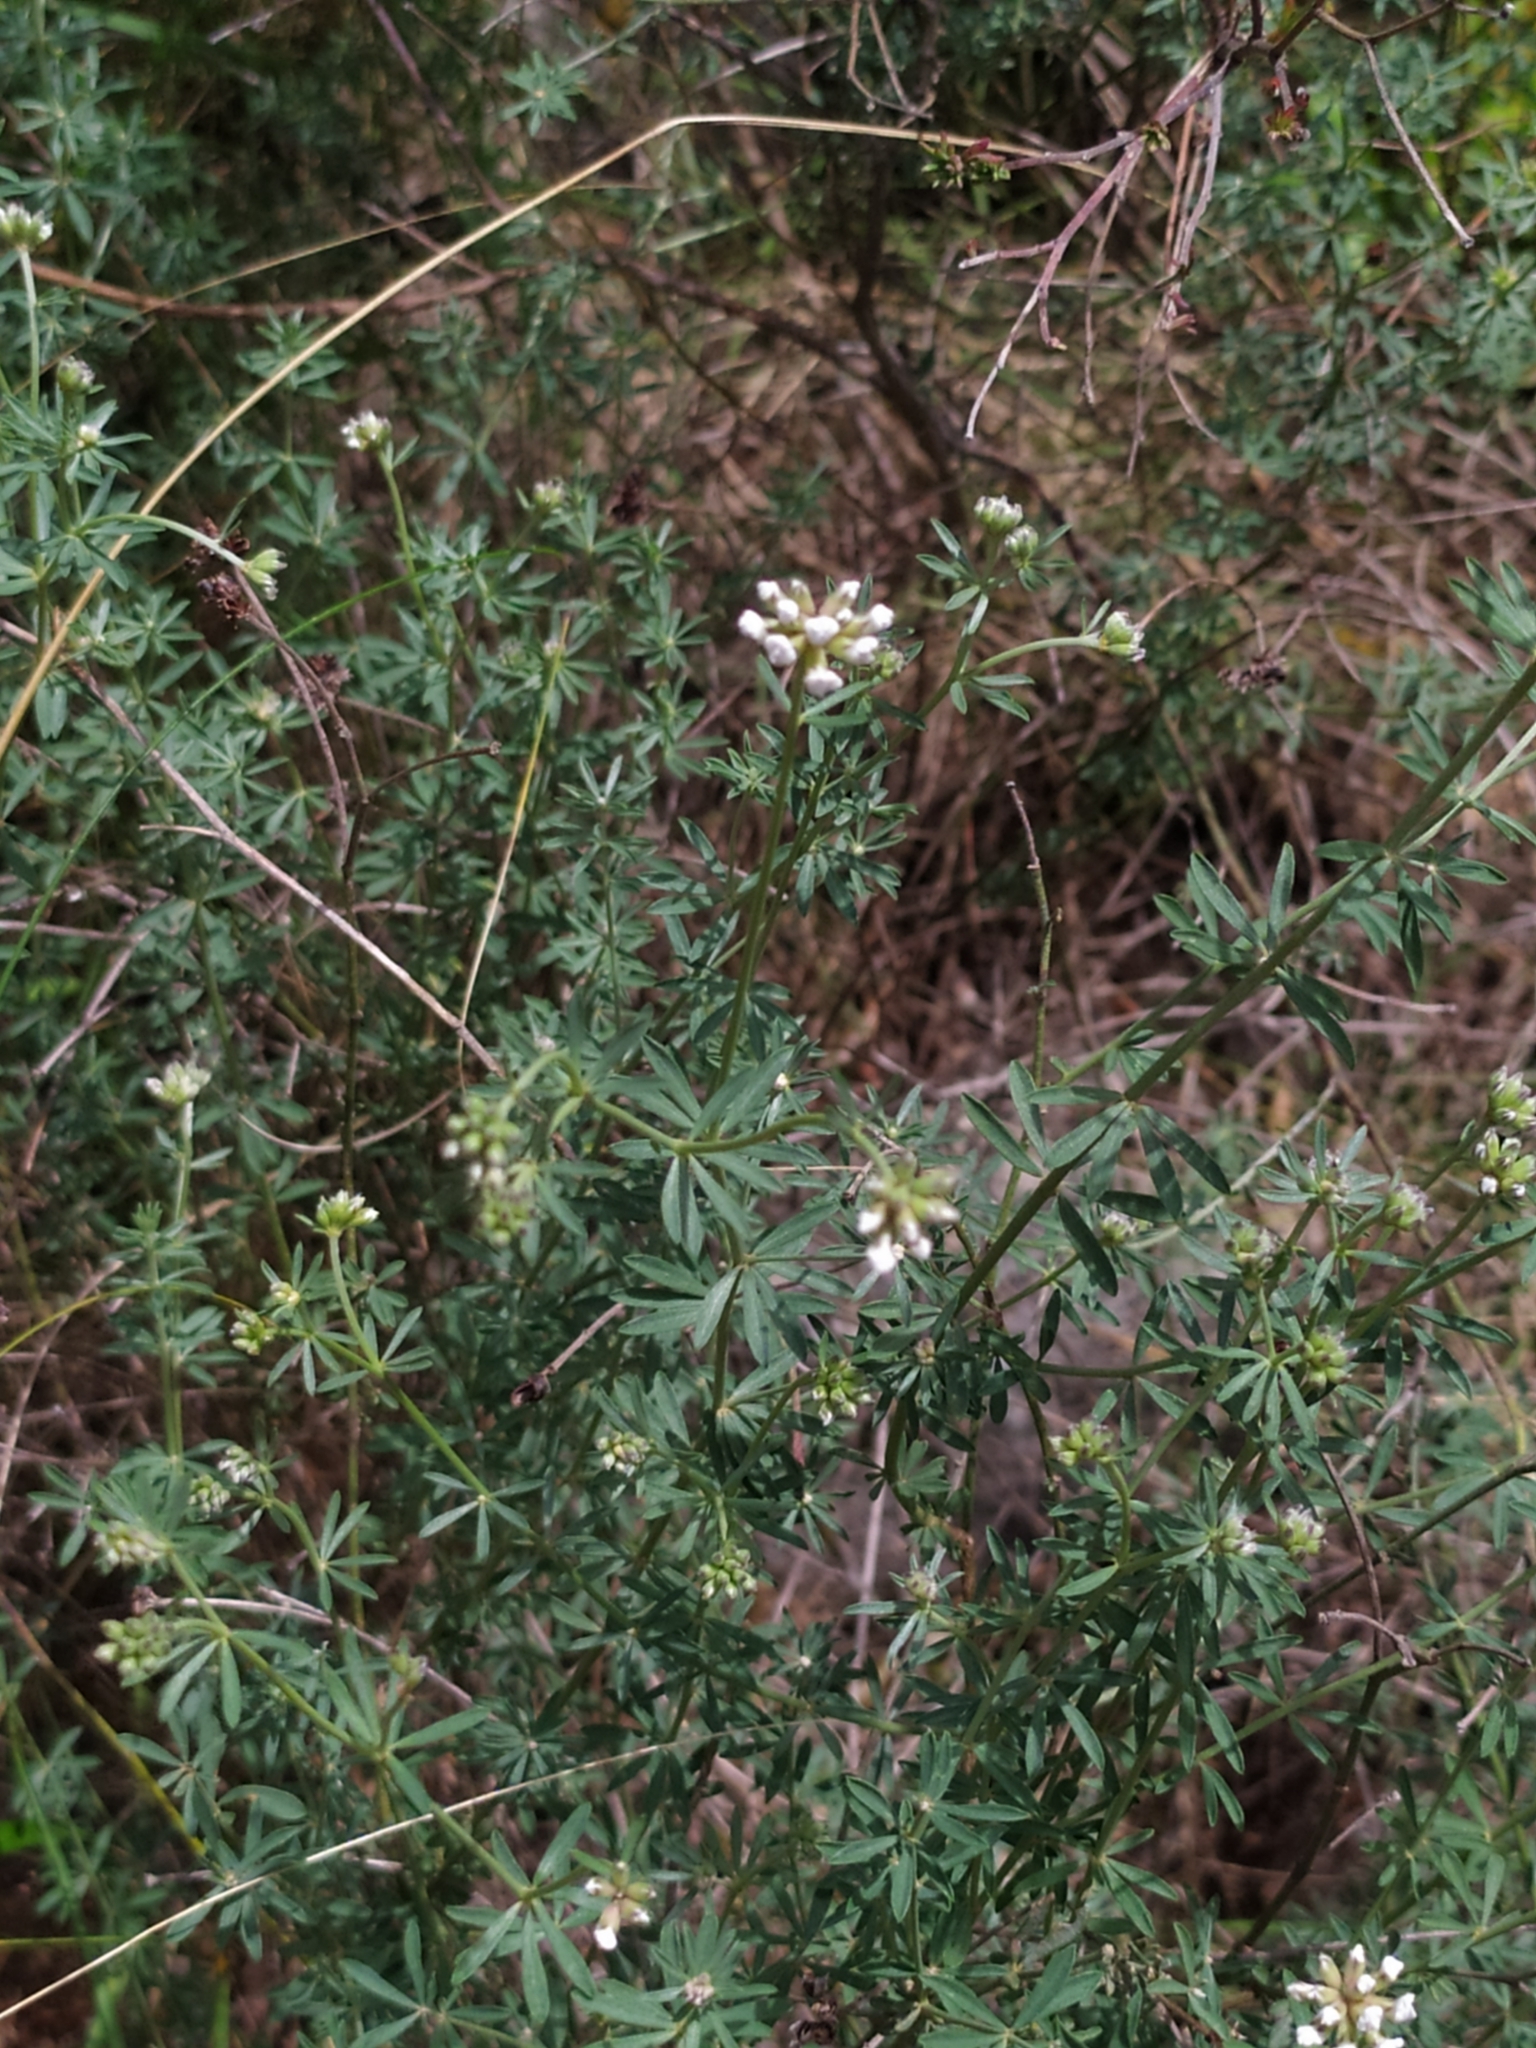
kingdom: Plantae
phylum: Tracheophyta
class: Magnoliopsida
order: Fabales
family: Fabaceae
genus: Lotus
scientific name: Lotus dorycnium
